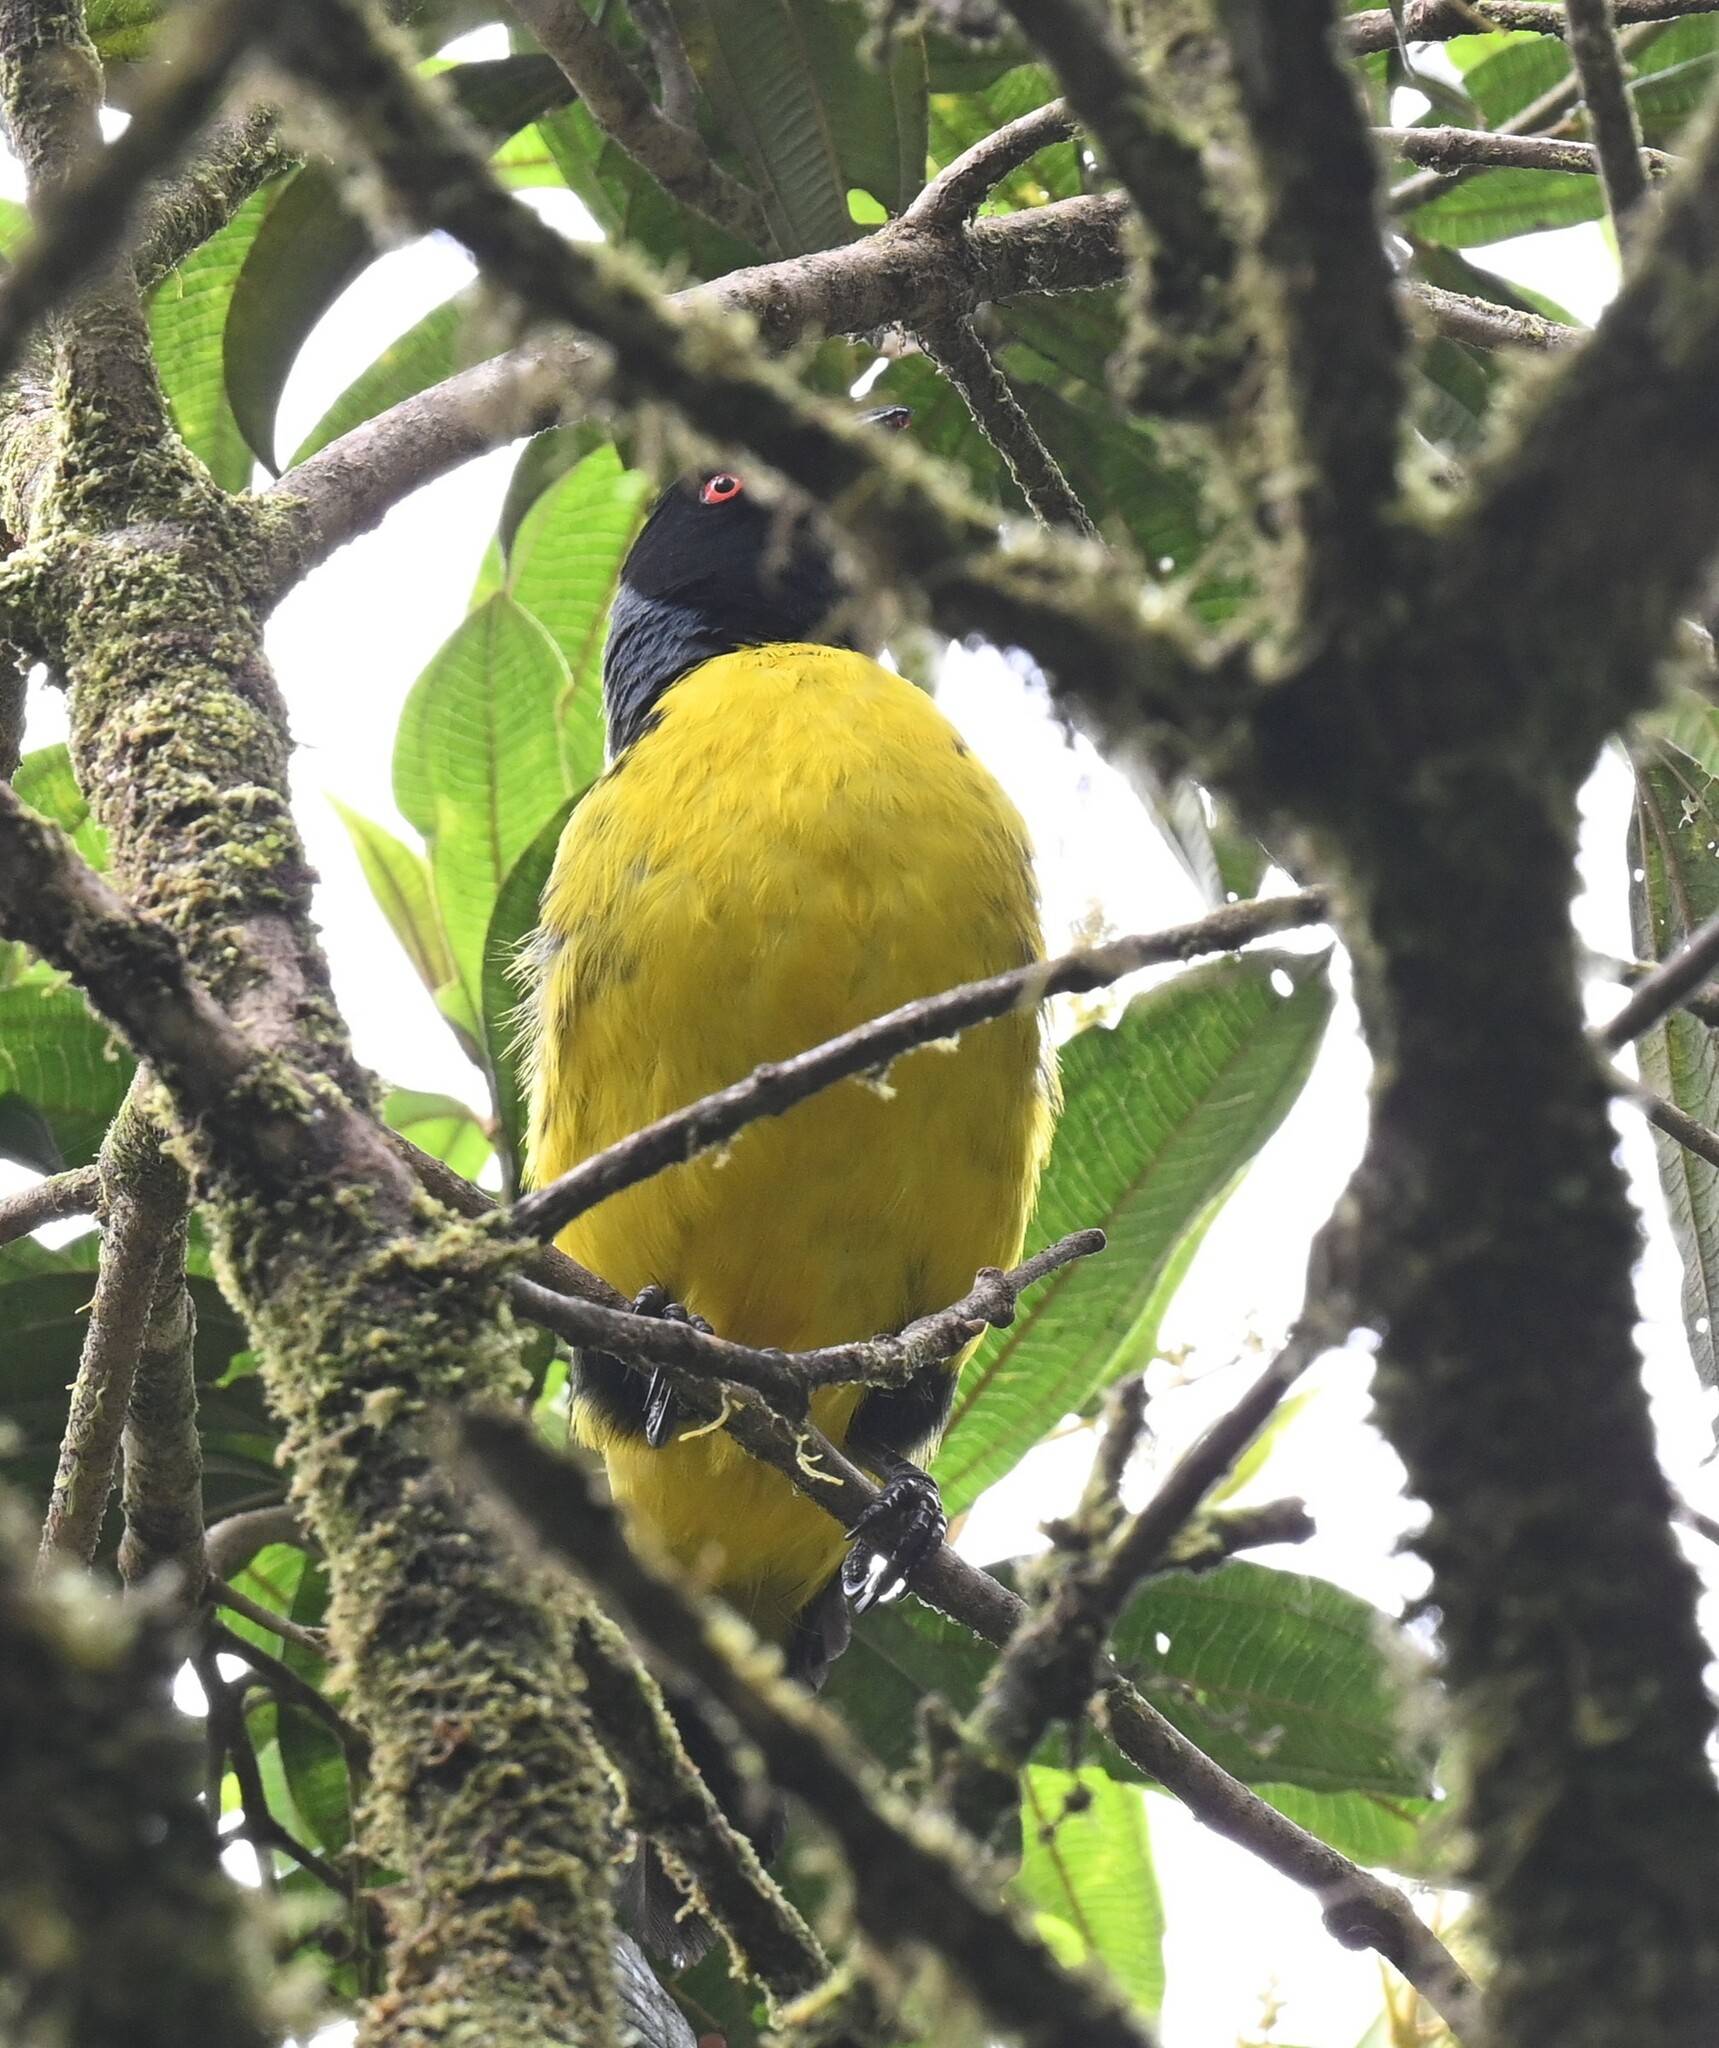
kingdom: Animalia
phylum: Chordata
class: Aves
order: Passeriformes
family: Thraupidae
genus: Buthraupis
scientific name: Buthraupis montana
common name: Hooded mountain tanager
